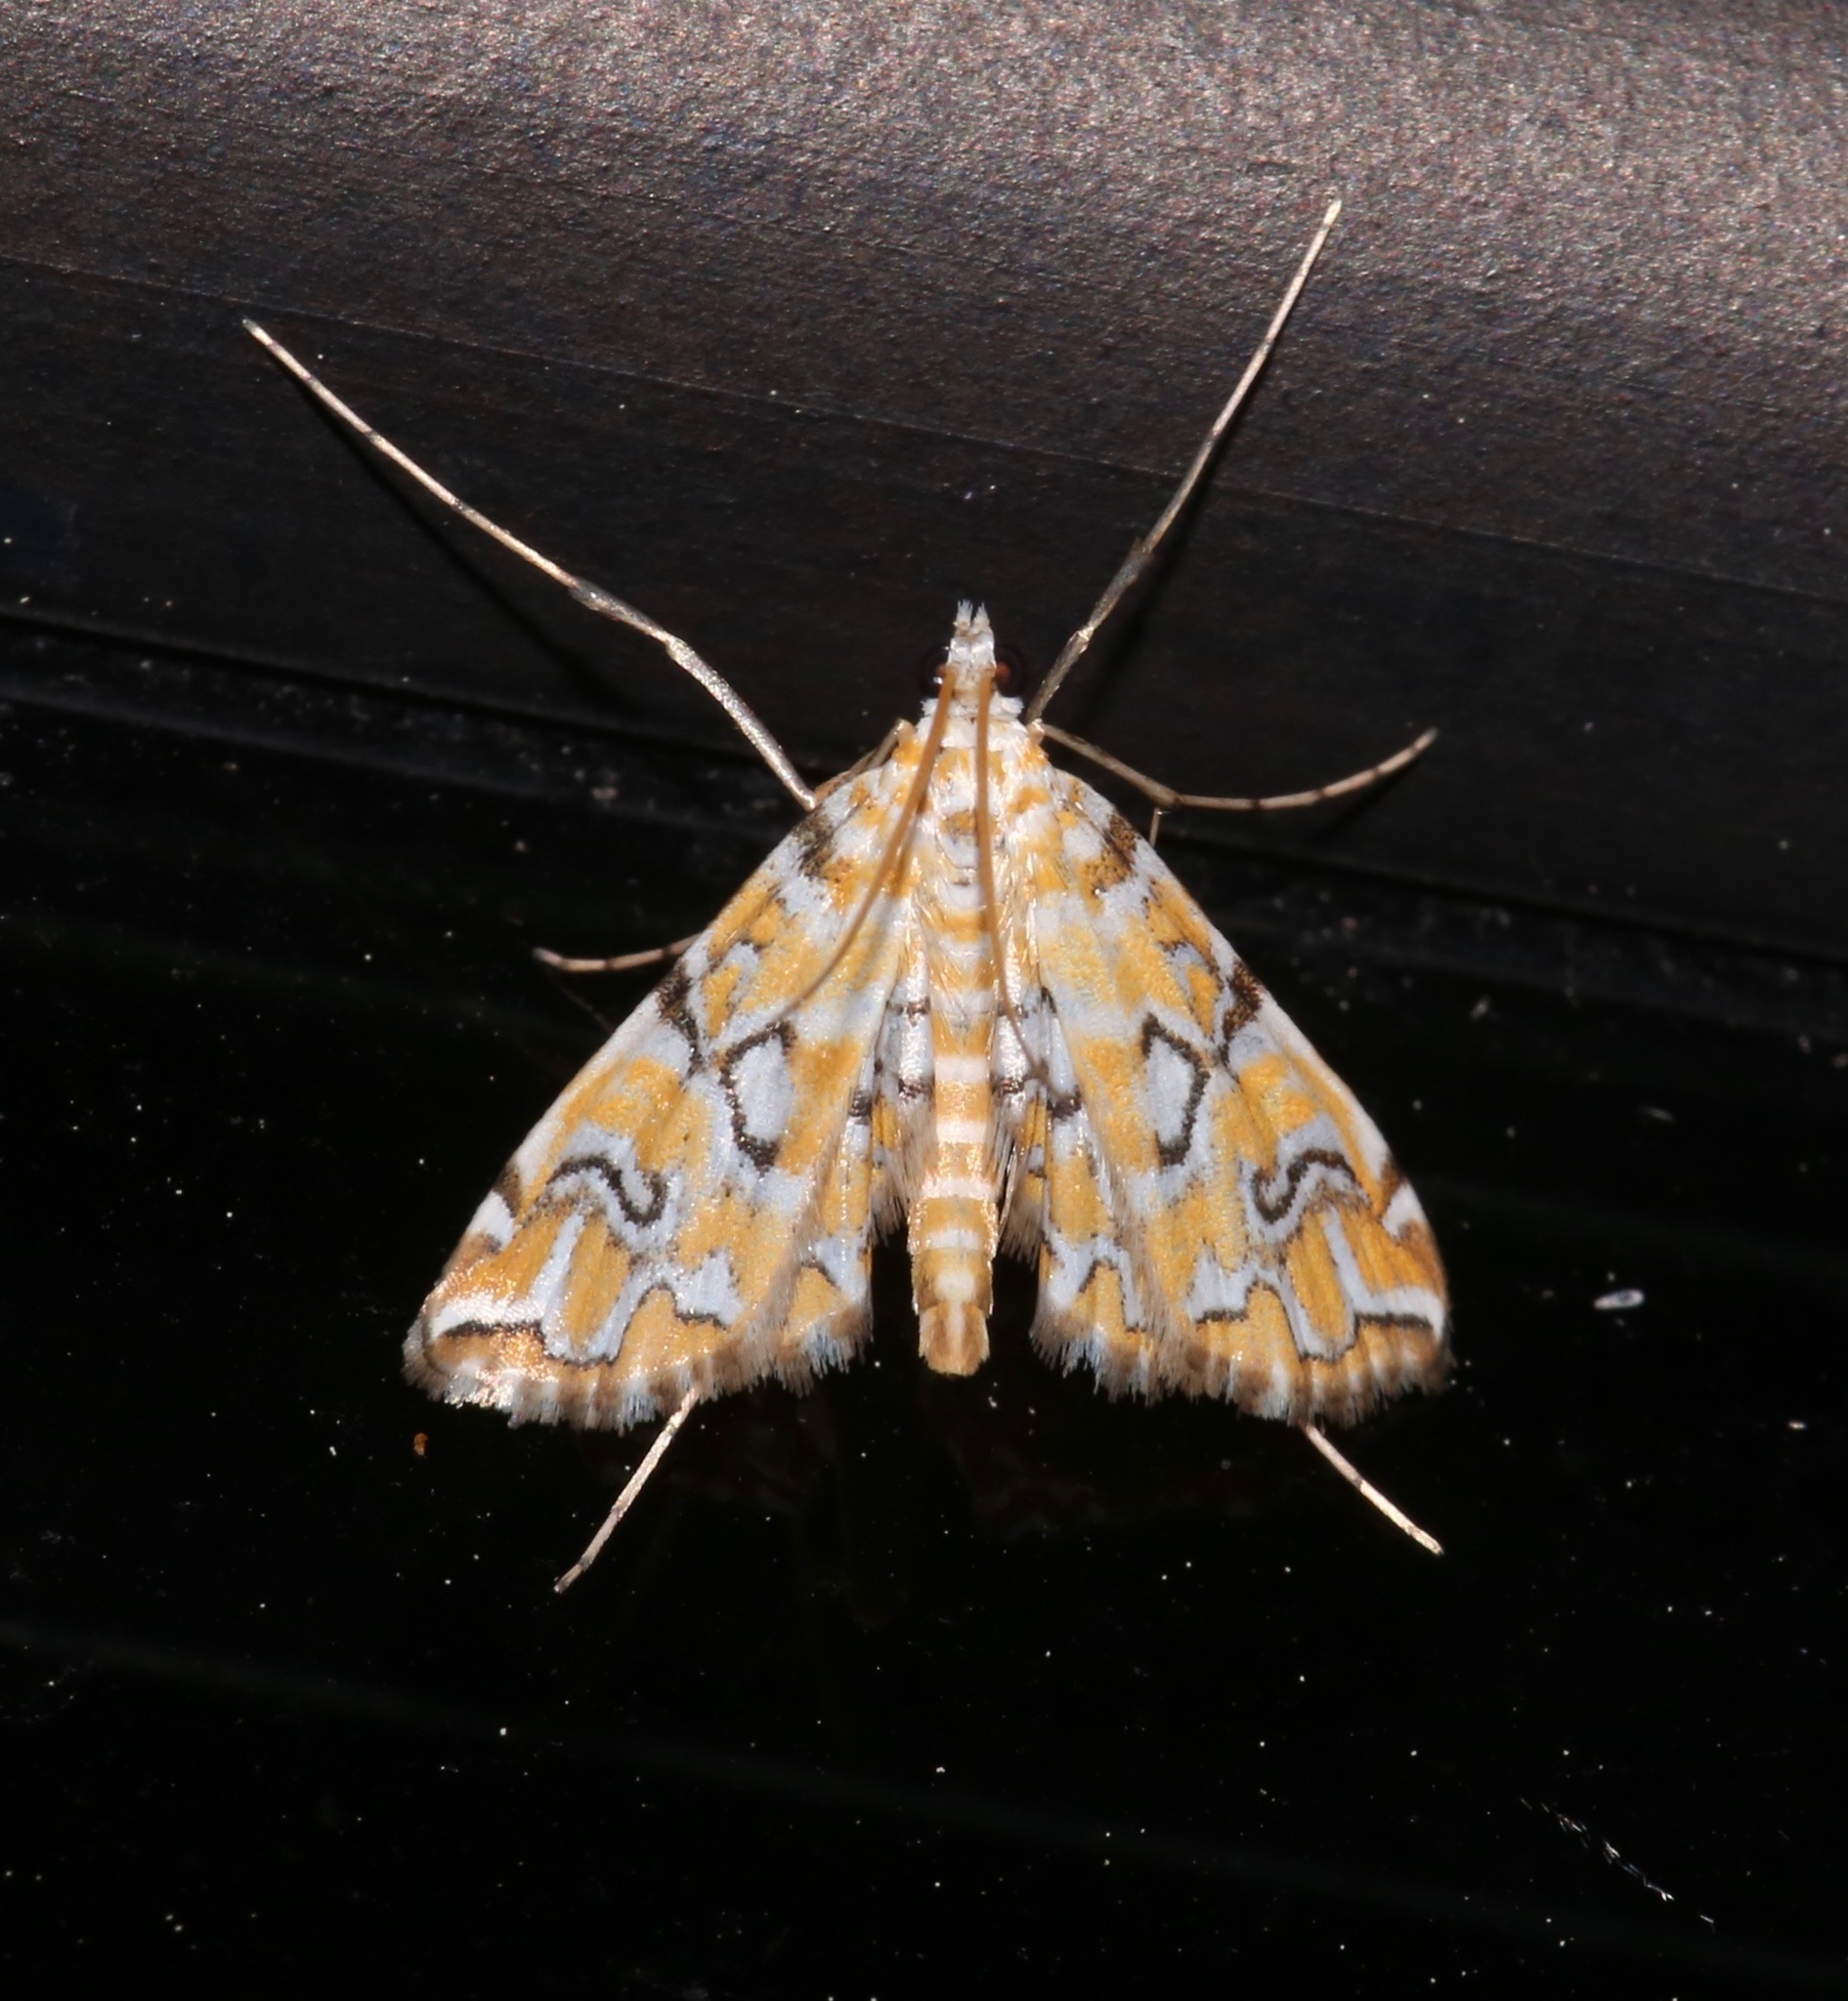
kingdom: Animalia
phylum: Arthropoda
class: Insecta
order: Lepidoptera
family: Crambidae
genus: Elophila
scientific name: Elophila icciusalis
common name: Pondside pyralid moth
